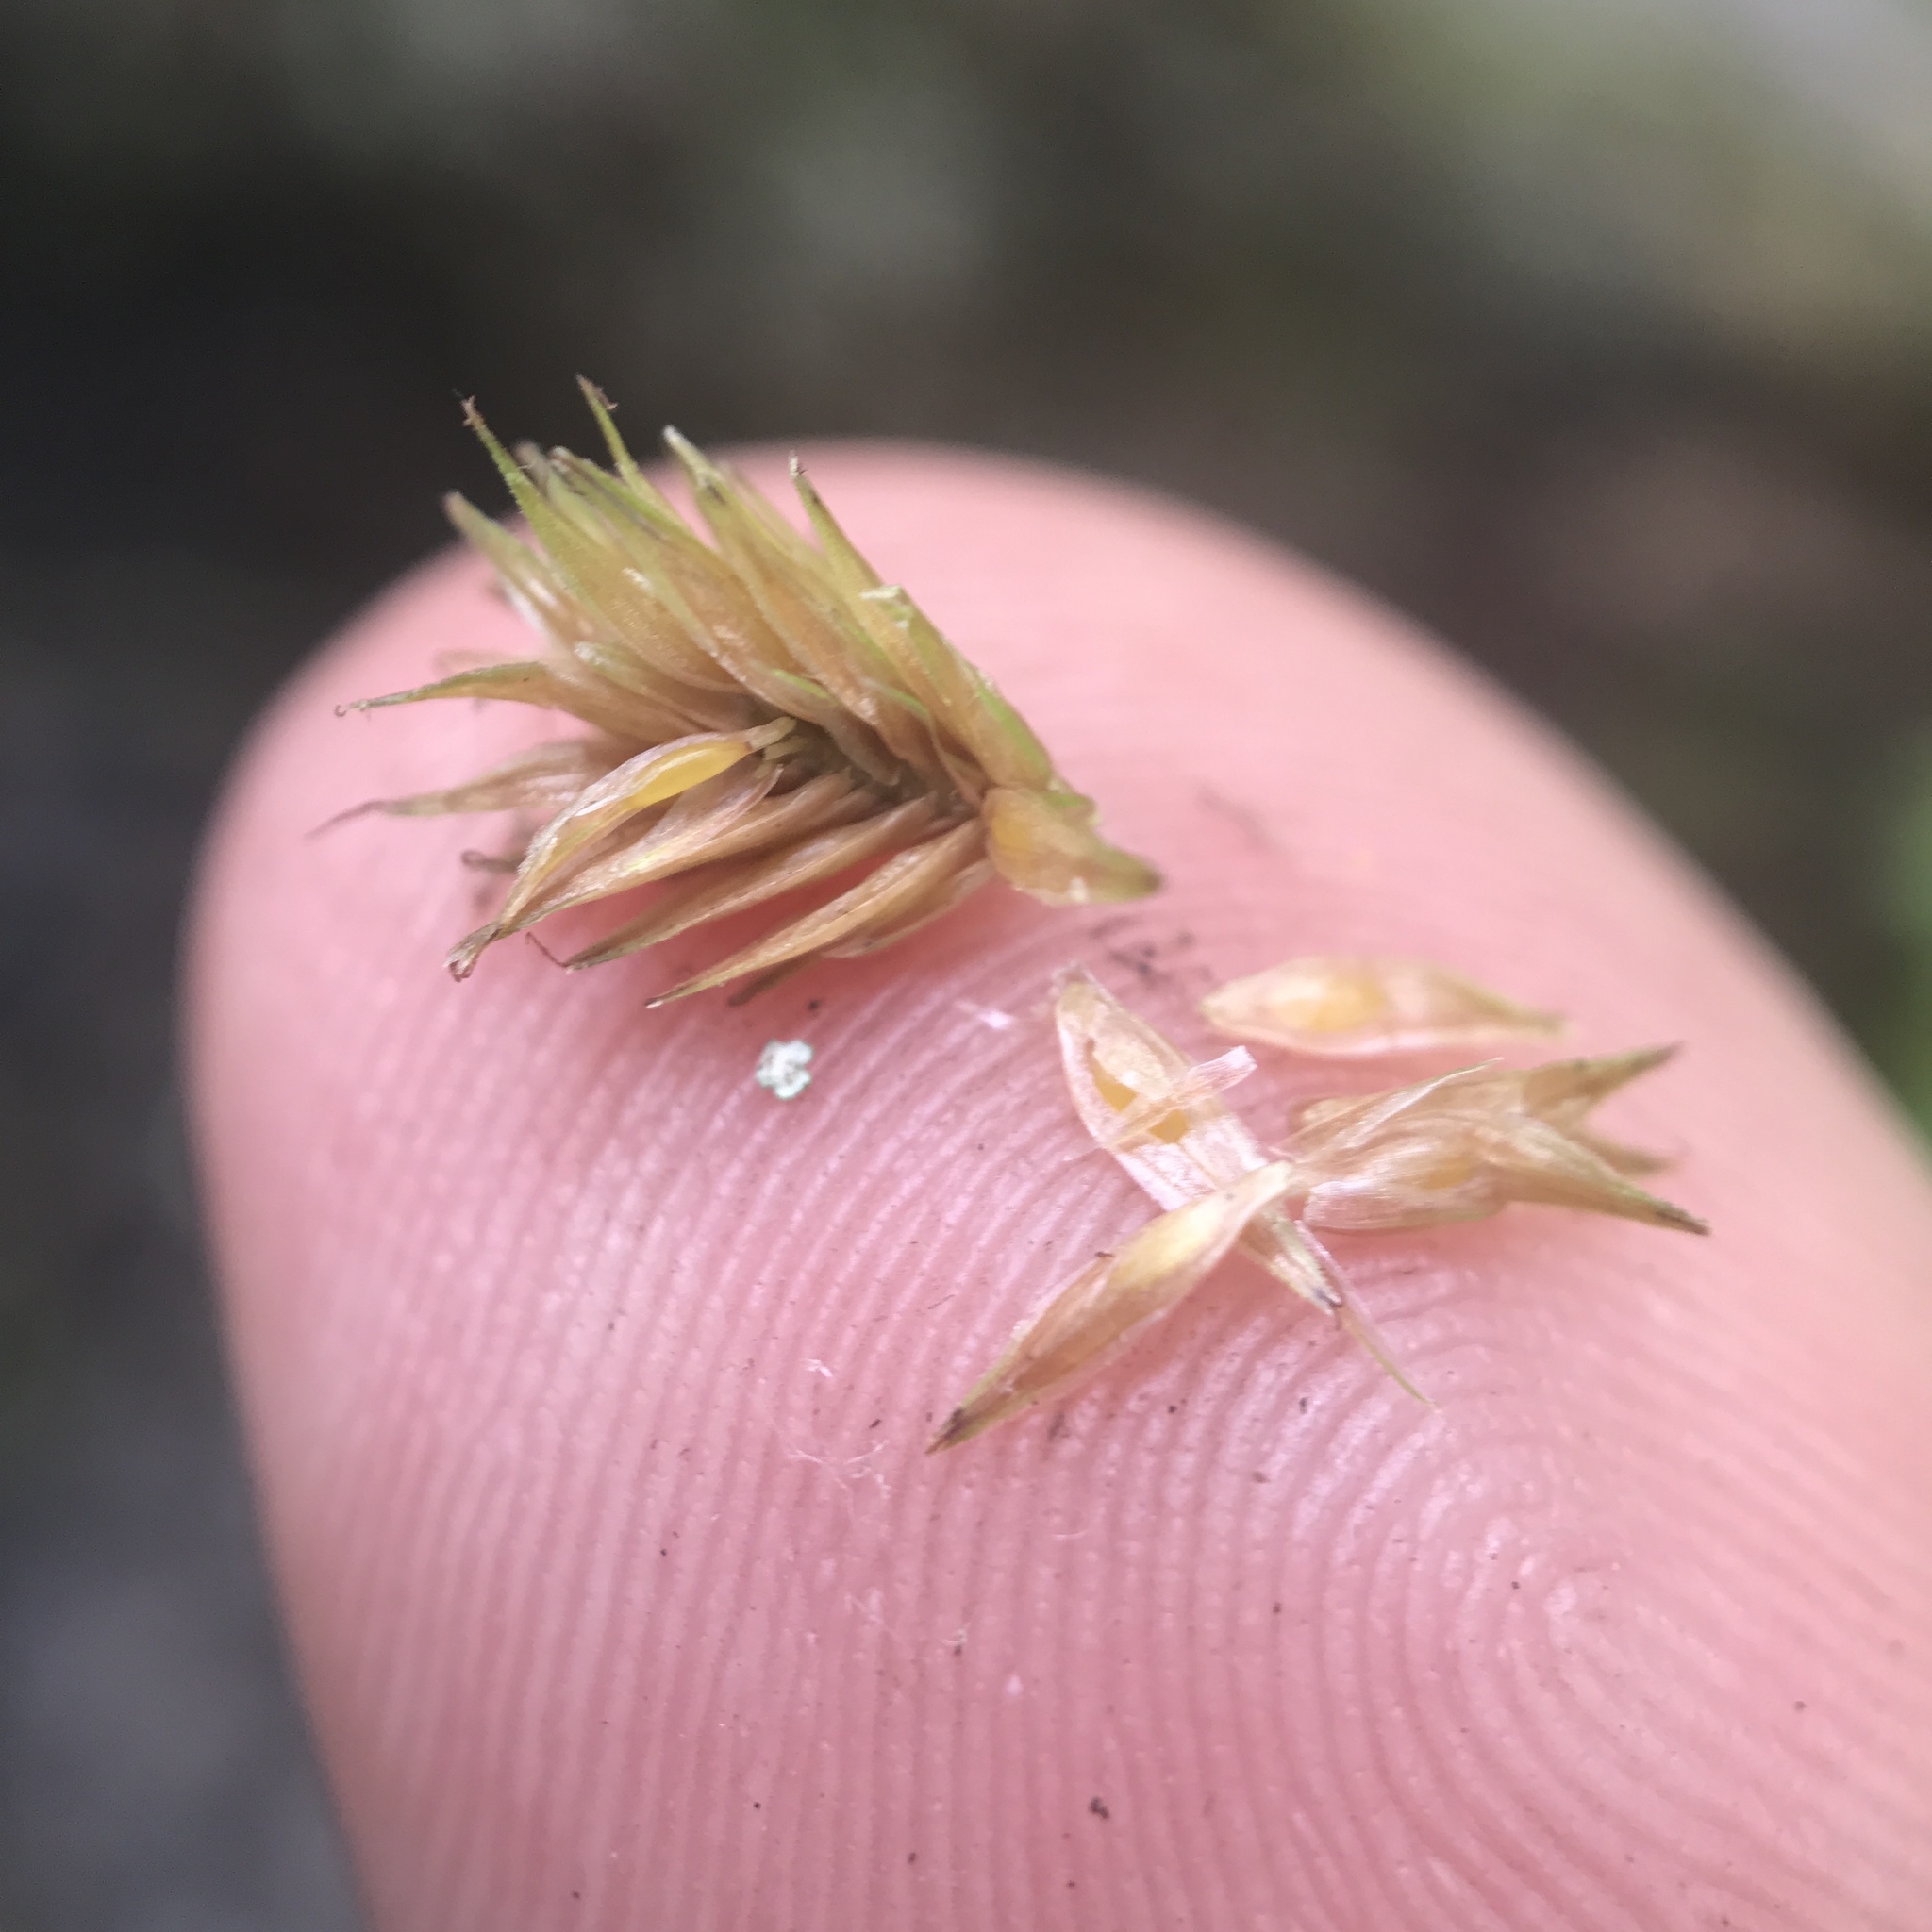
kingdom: Plantae
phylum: Tracheophyta
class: Liliopsida
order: Poales
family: Cyperaceae
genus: Carex
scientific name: Carex tribuloides
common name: Blunt broom sedge
